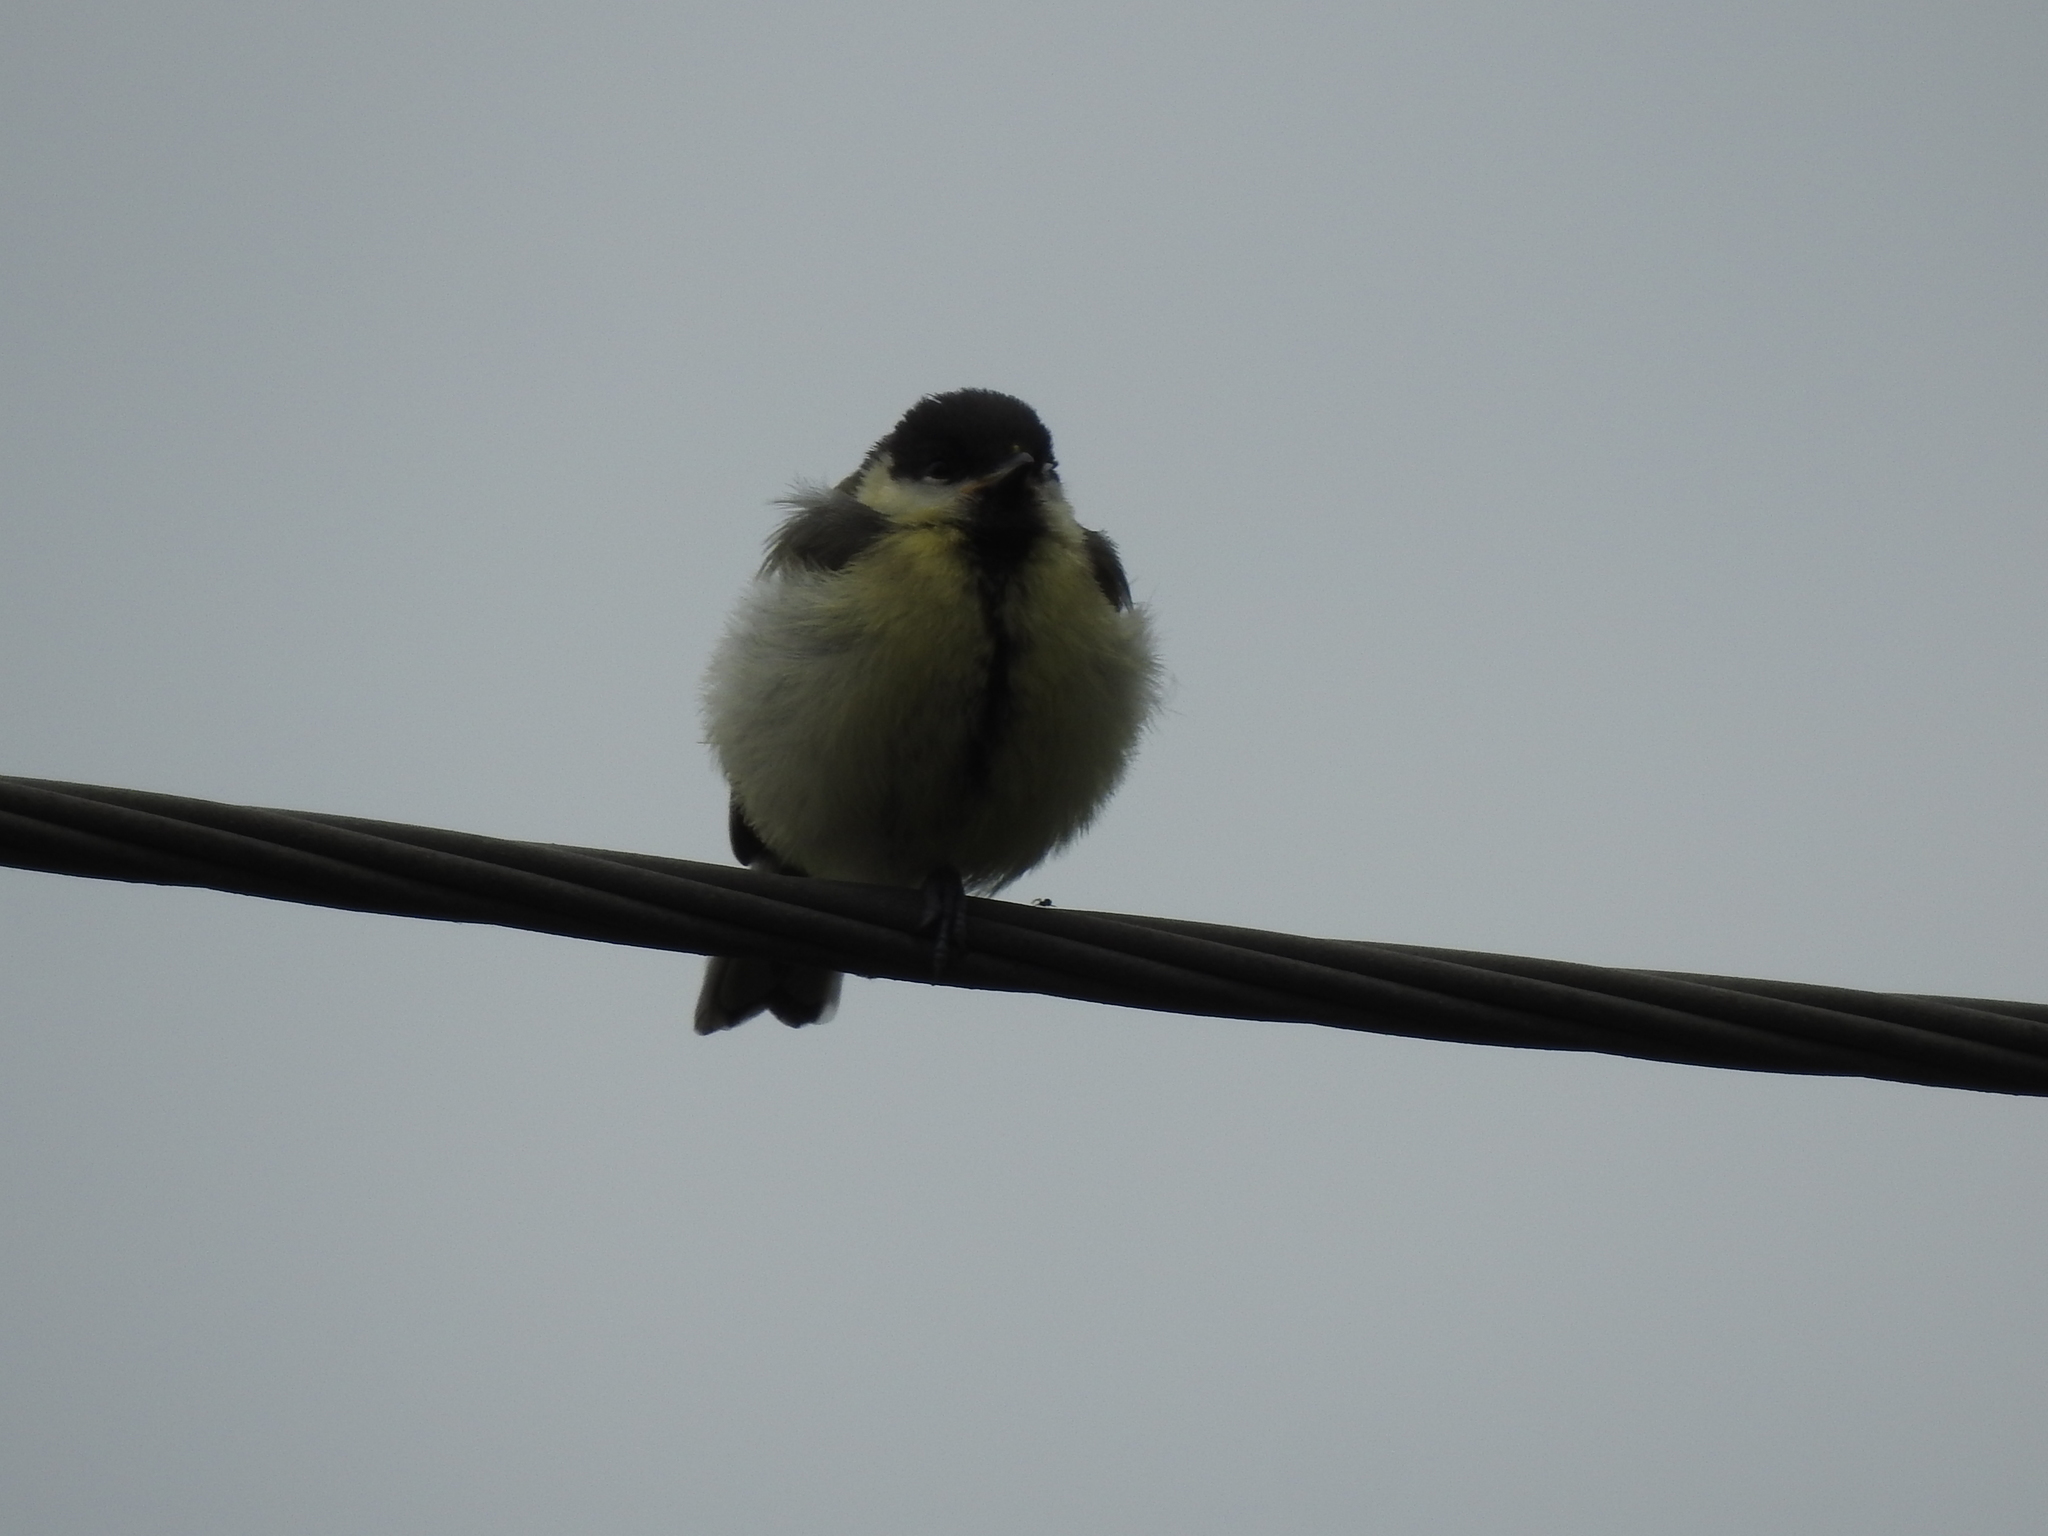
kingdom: Animalia
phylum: Chordata
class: Aves
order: Passeriformes
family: Paridae
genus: Parus
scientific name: Parus major
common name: Great tit
